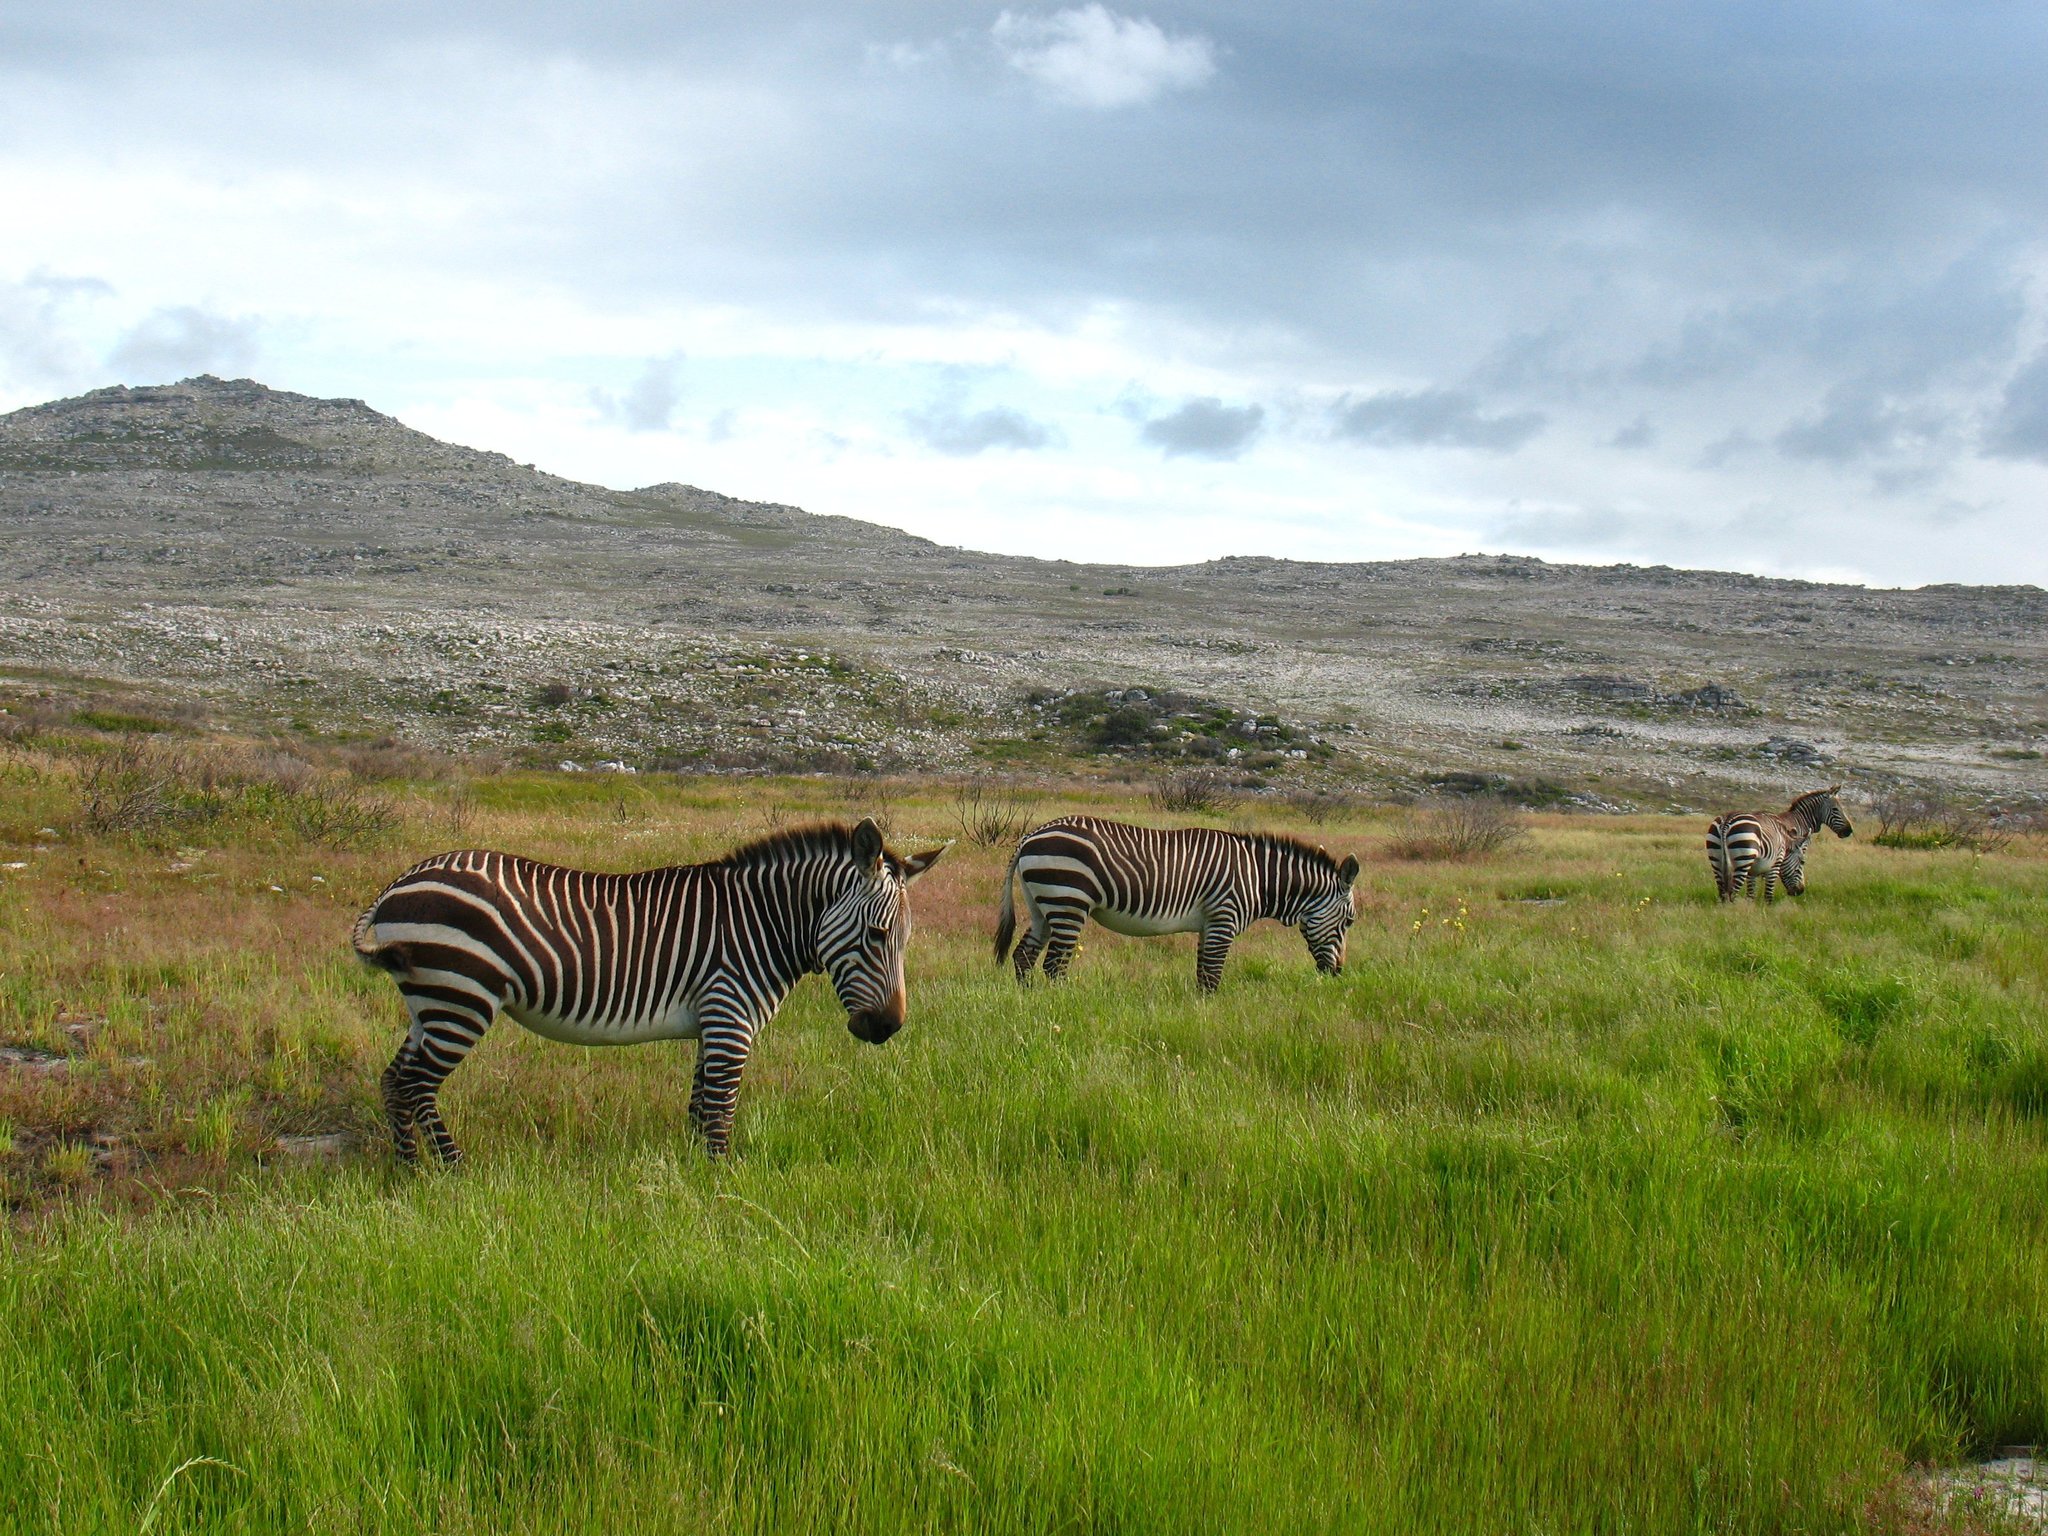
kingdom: Animalia
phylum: Chordata
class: Mammalia
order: Perissodactyla
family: Equidae
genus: Equus
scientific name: Equus zebra
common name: Mountain zebra
